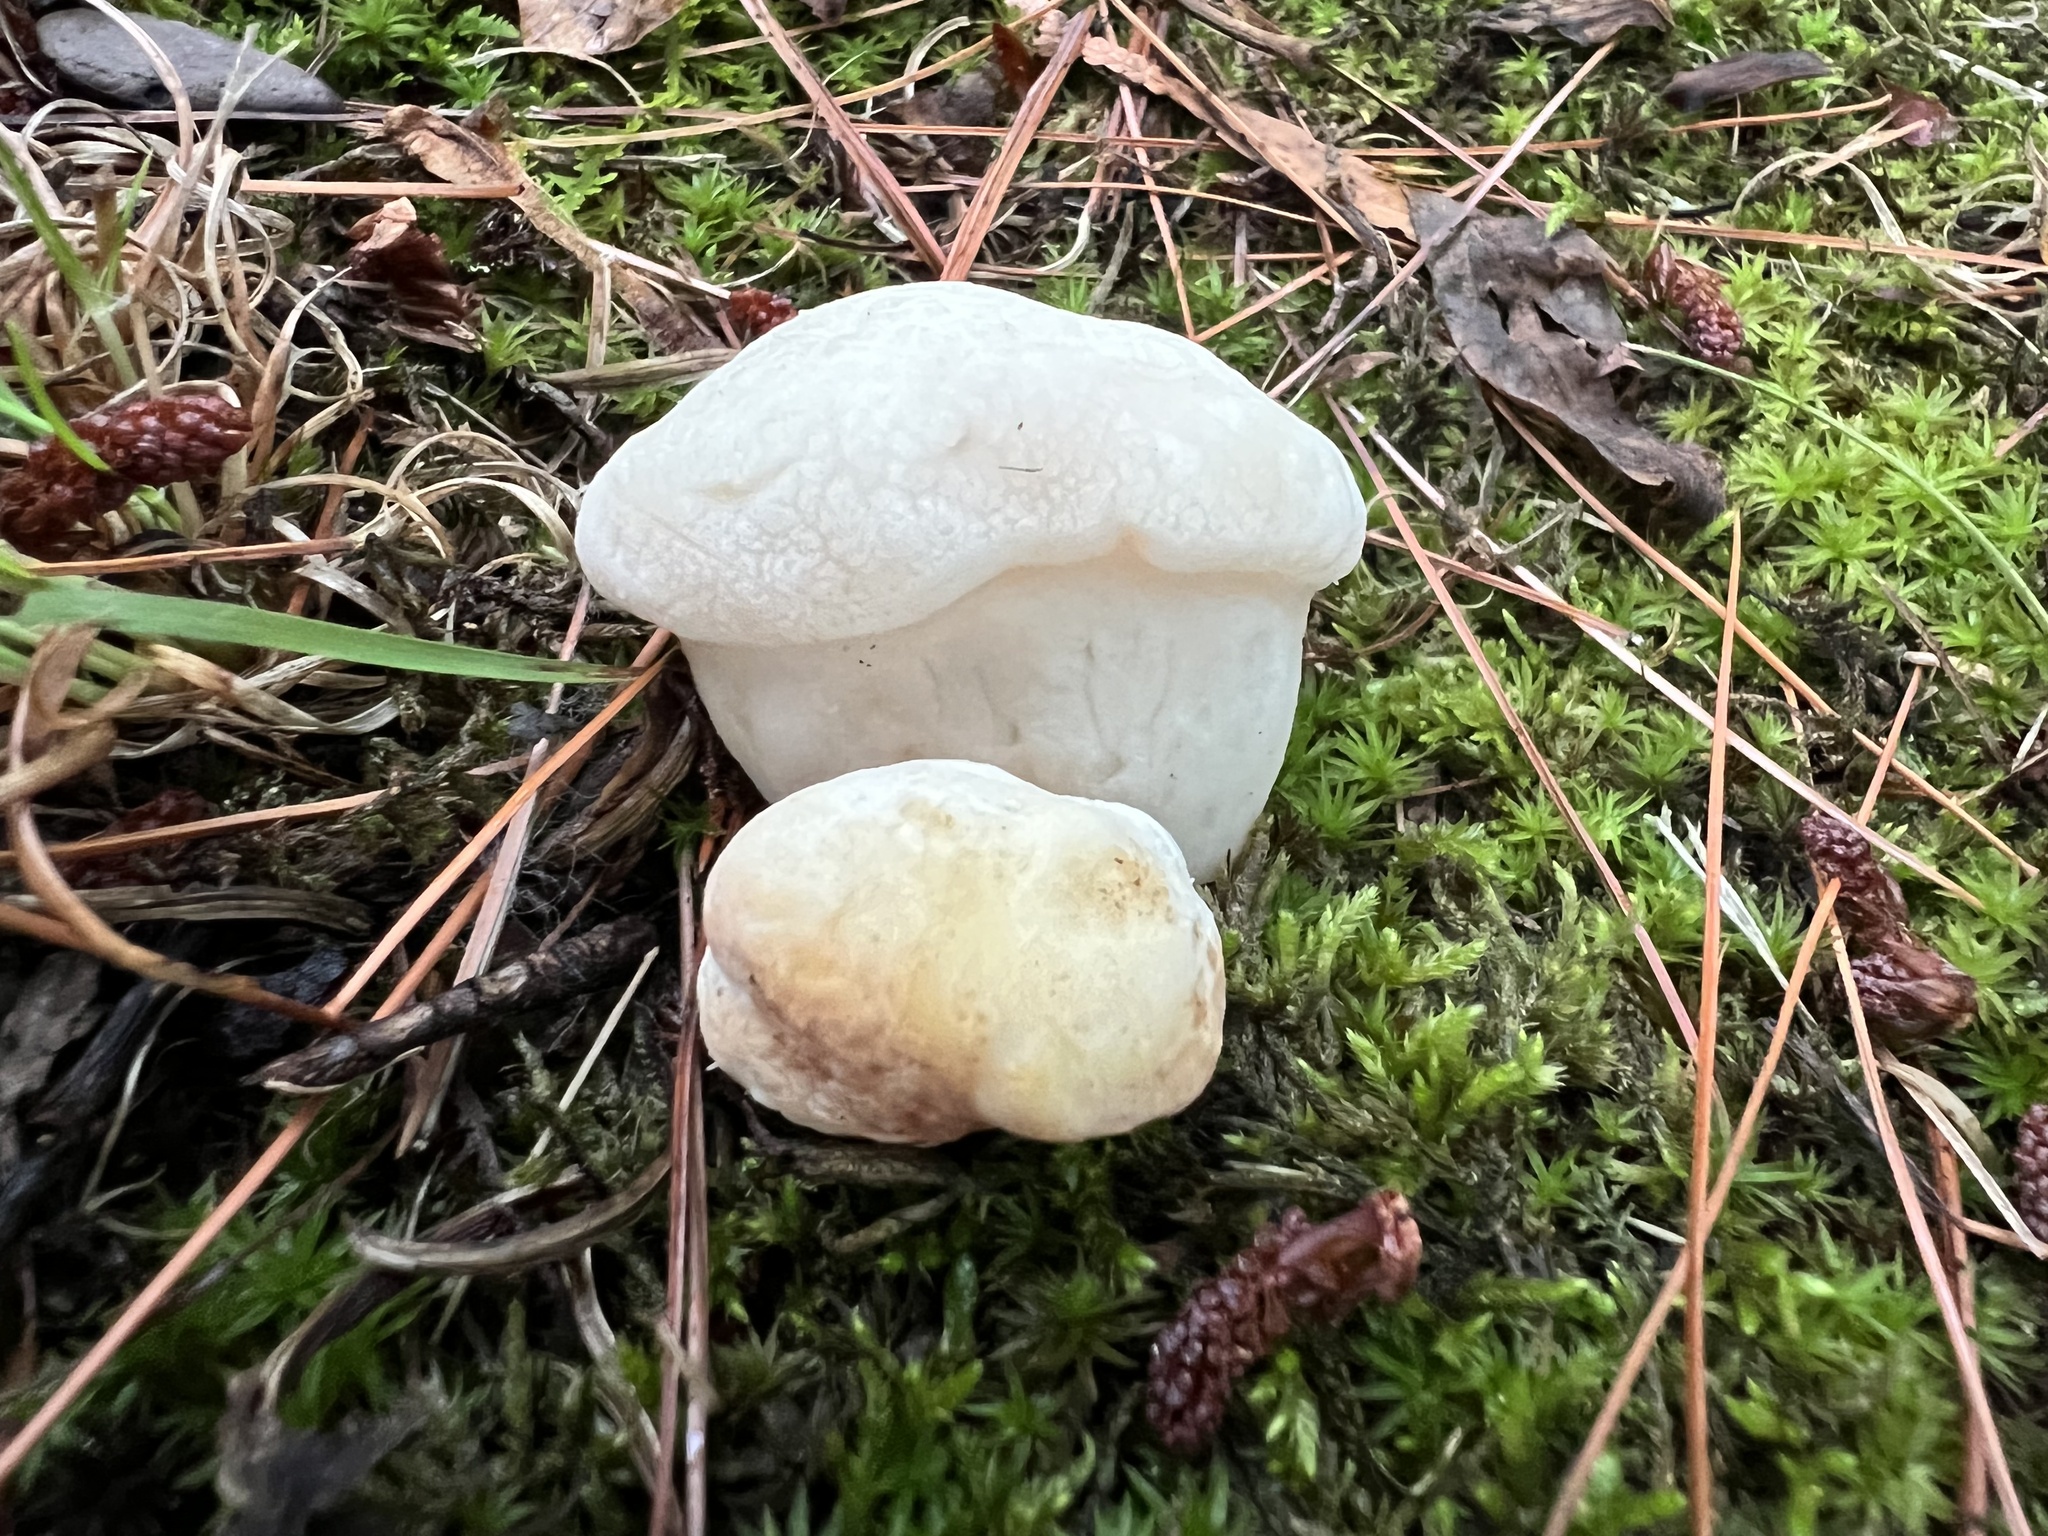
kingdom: Fungi
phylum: Basidiomycota
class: Agaricomycetes
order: Boletales
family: Boletaceae
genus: Xanthoconium
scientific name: Xanthoconium purpureum
